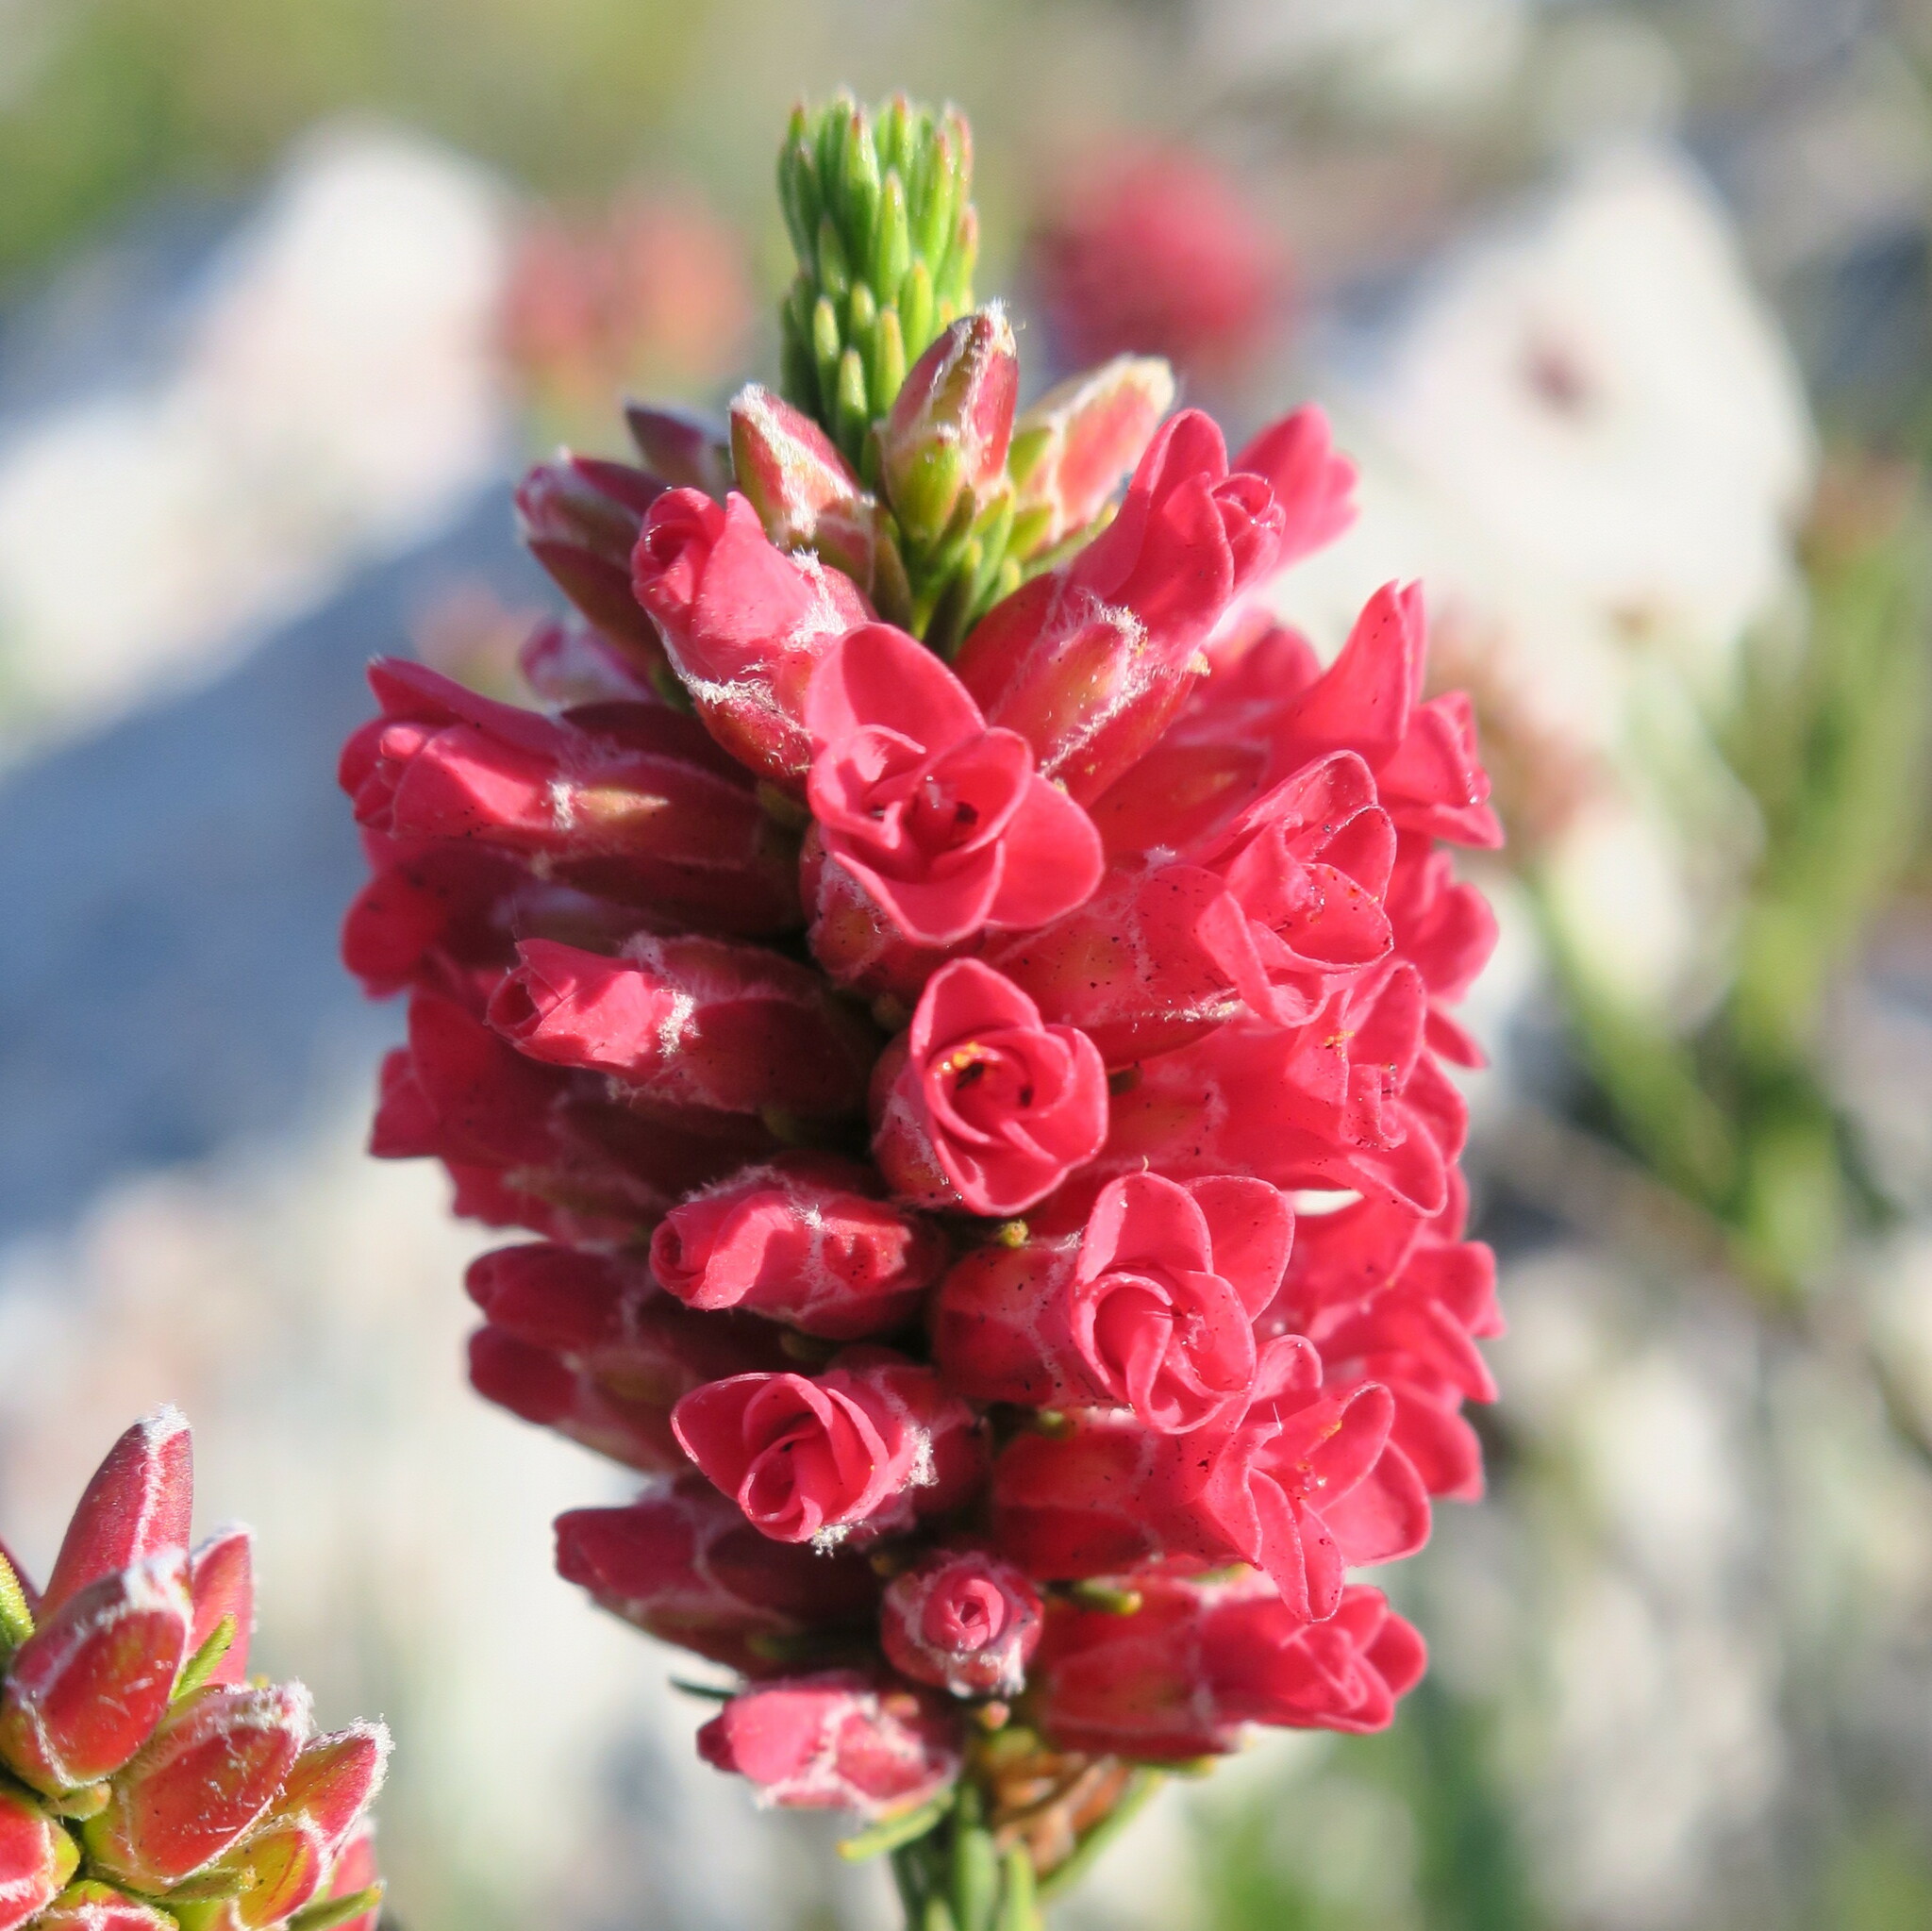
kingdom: Plantae
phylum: Tracheophyta
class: Magnoliopsida
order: Bruniales
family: Bruniaceae
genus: Audouinia
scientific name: Audouinia capitata
